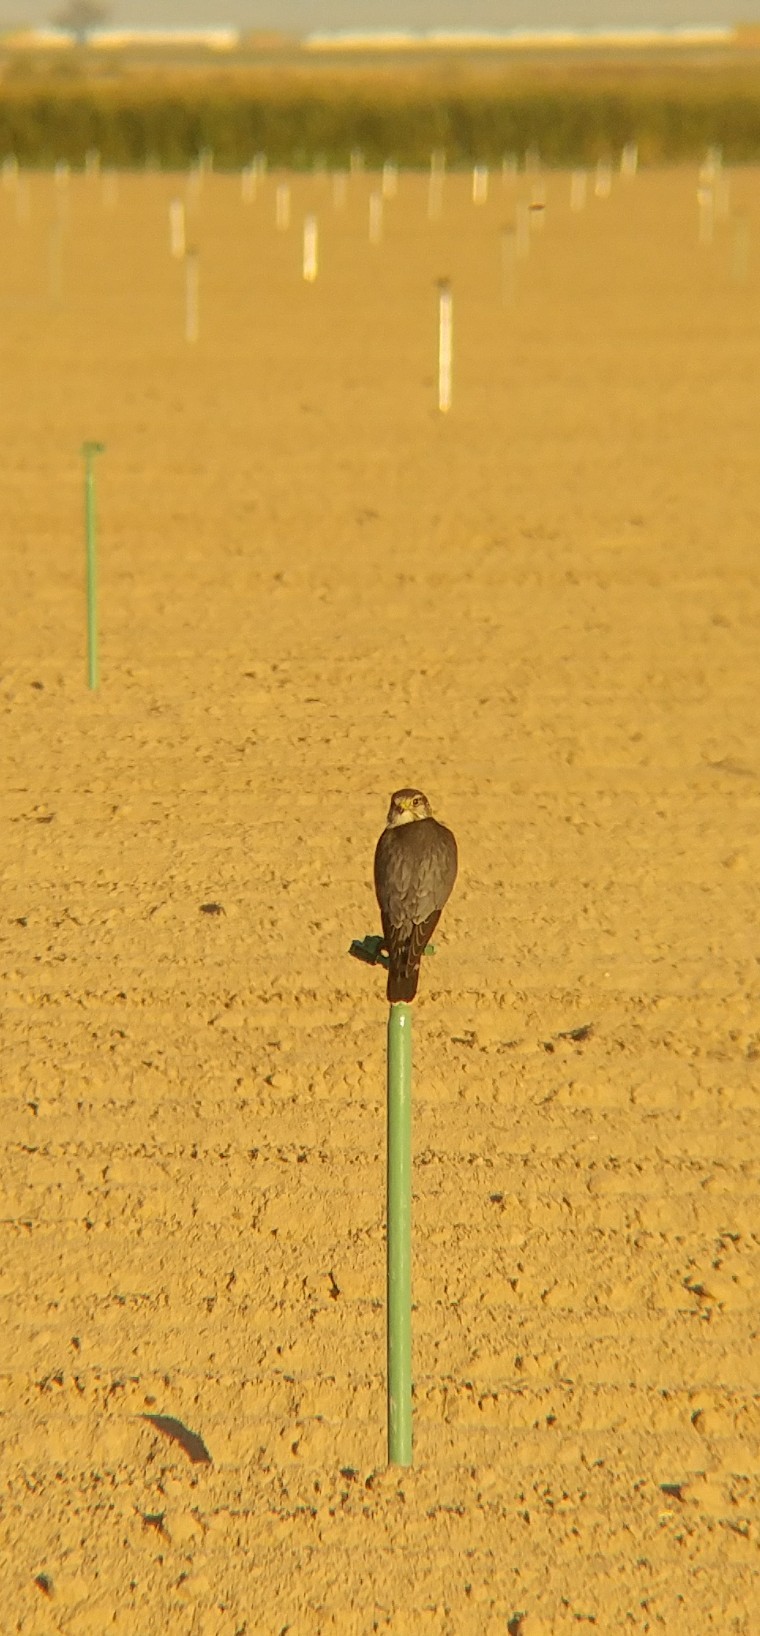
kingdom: Animalia
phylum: Chordata
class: Aves
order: Falconiformes
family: Falconidae
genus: Falco
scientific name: Falco columbarius
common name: Merlin
